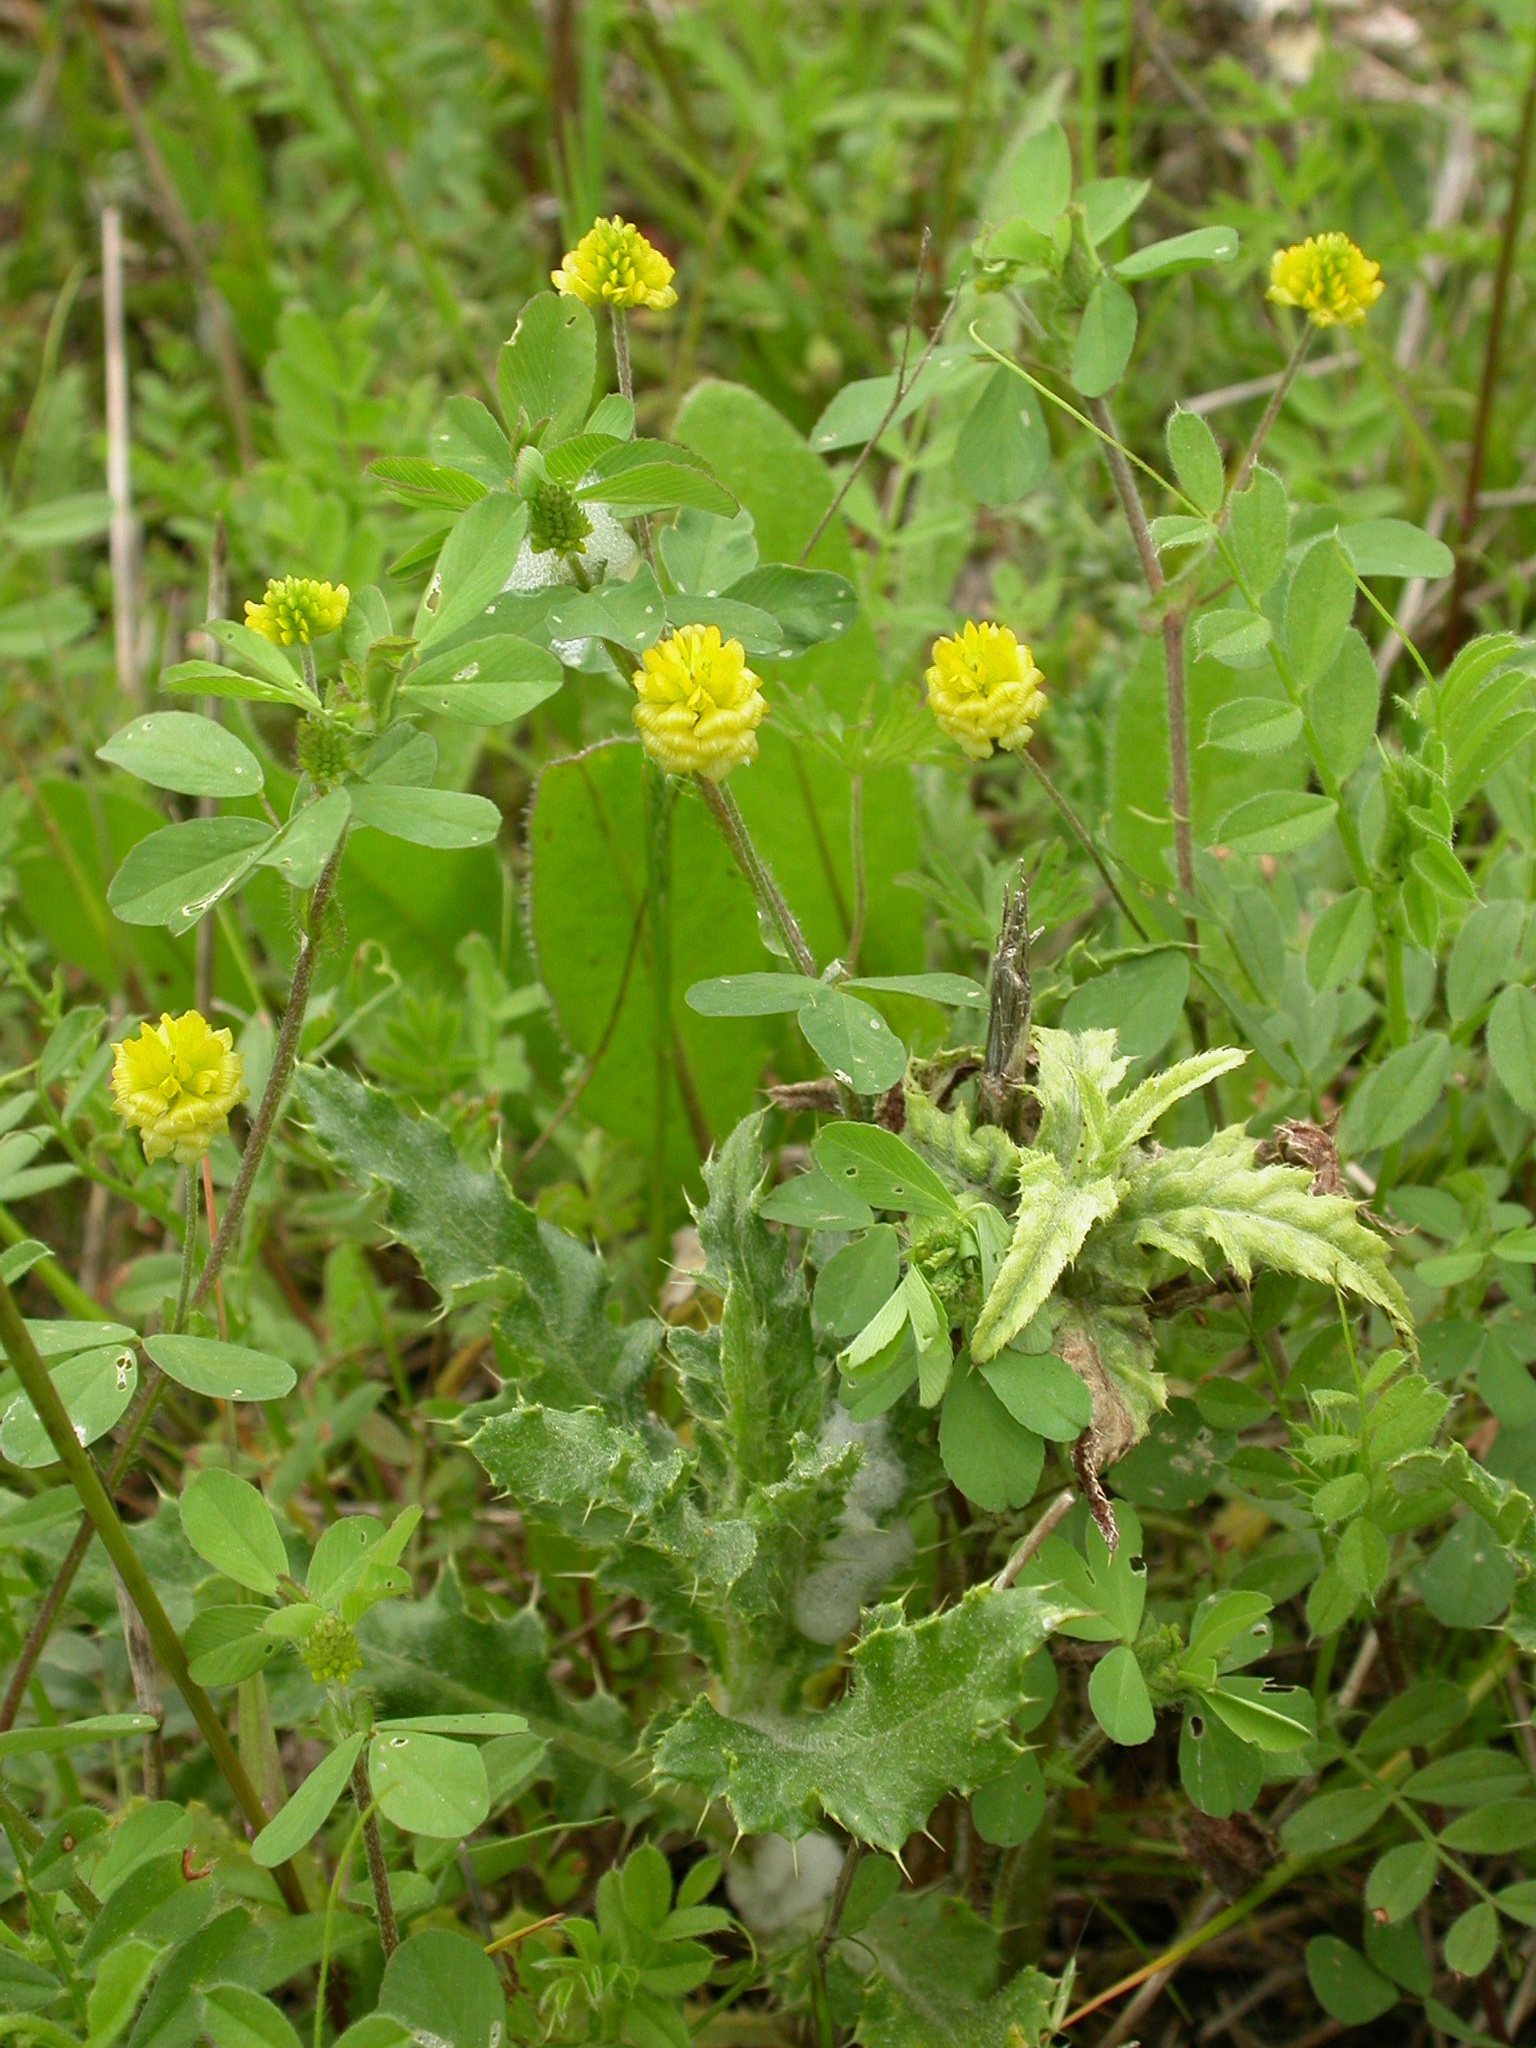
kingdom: Plantae
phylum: Tracheophyta
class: Magnoliopsida
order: Fabales
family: Fabaceae
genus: Trifolium
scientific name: Trifolium campestre
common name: Field clover
